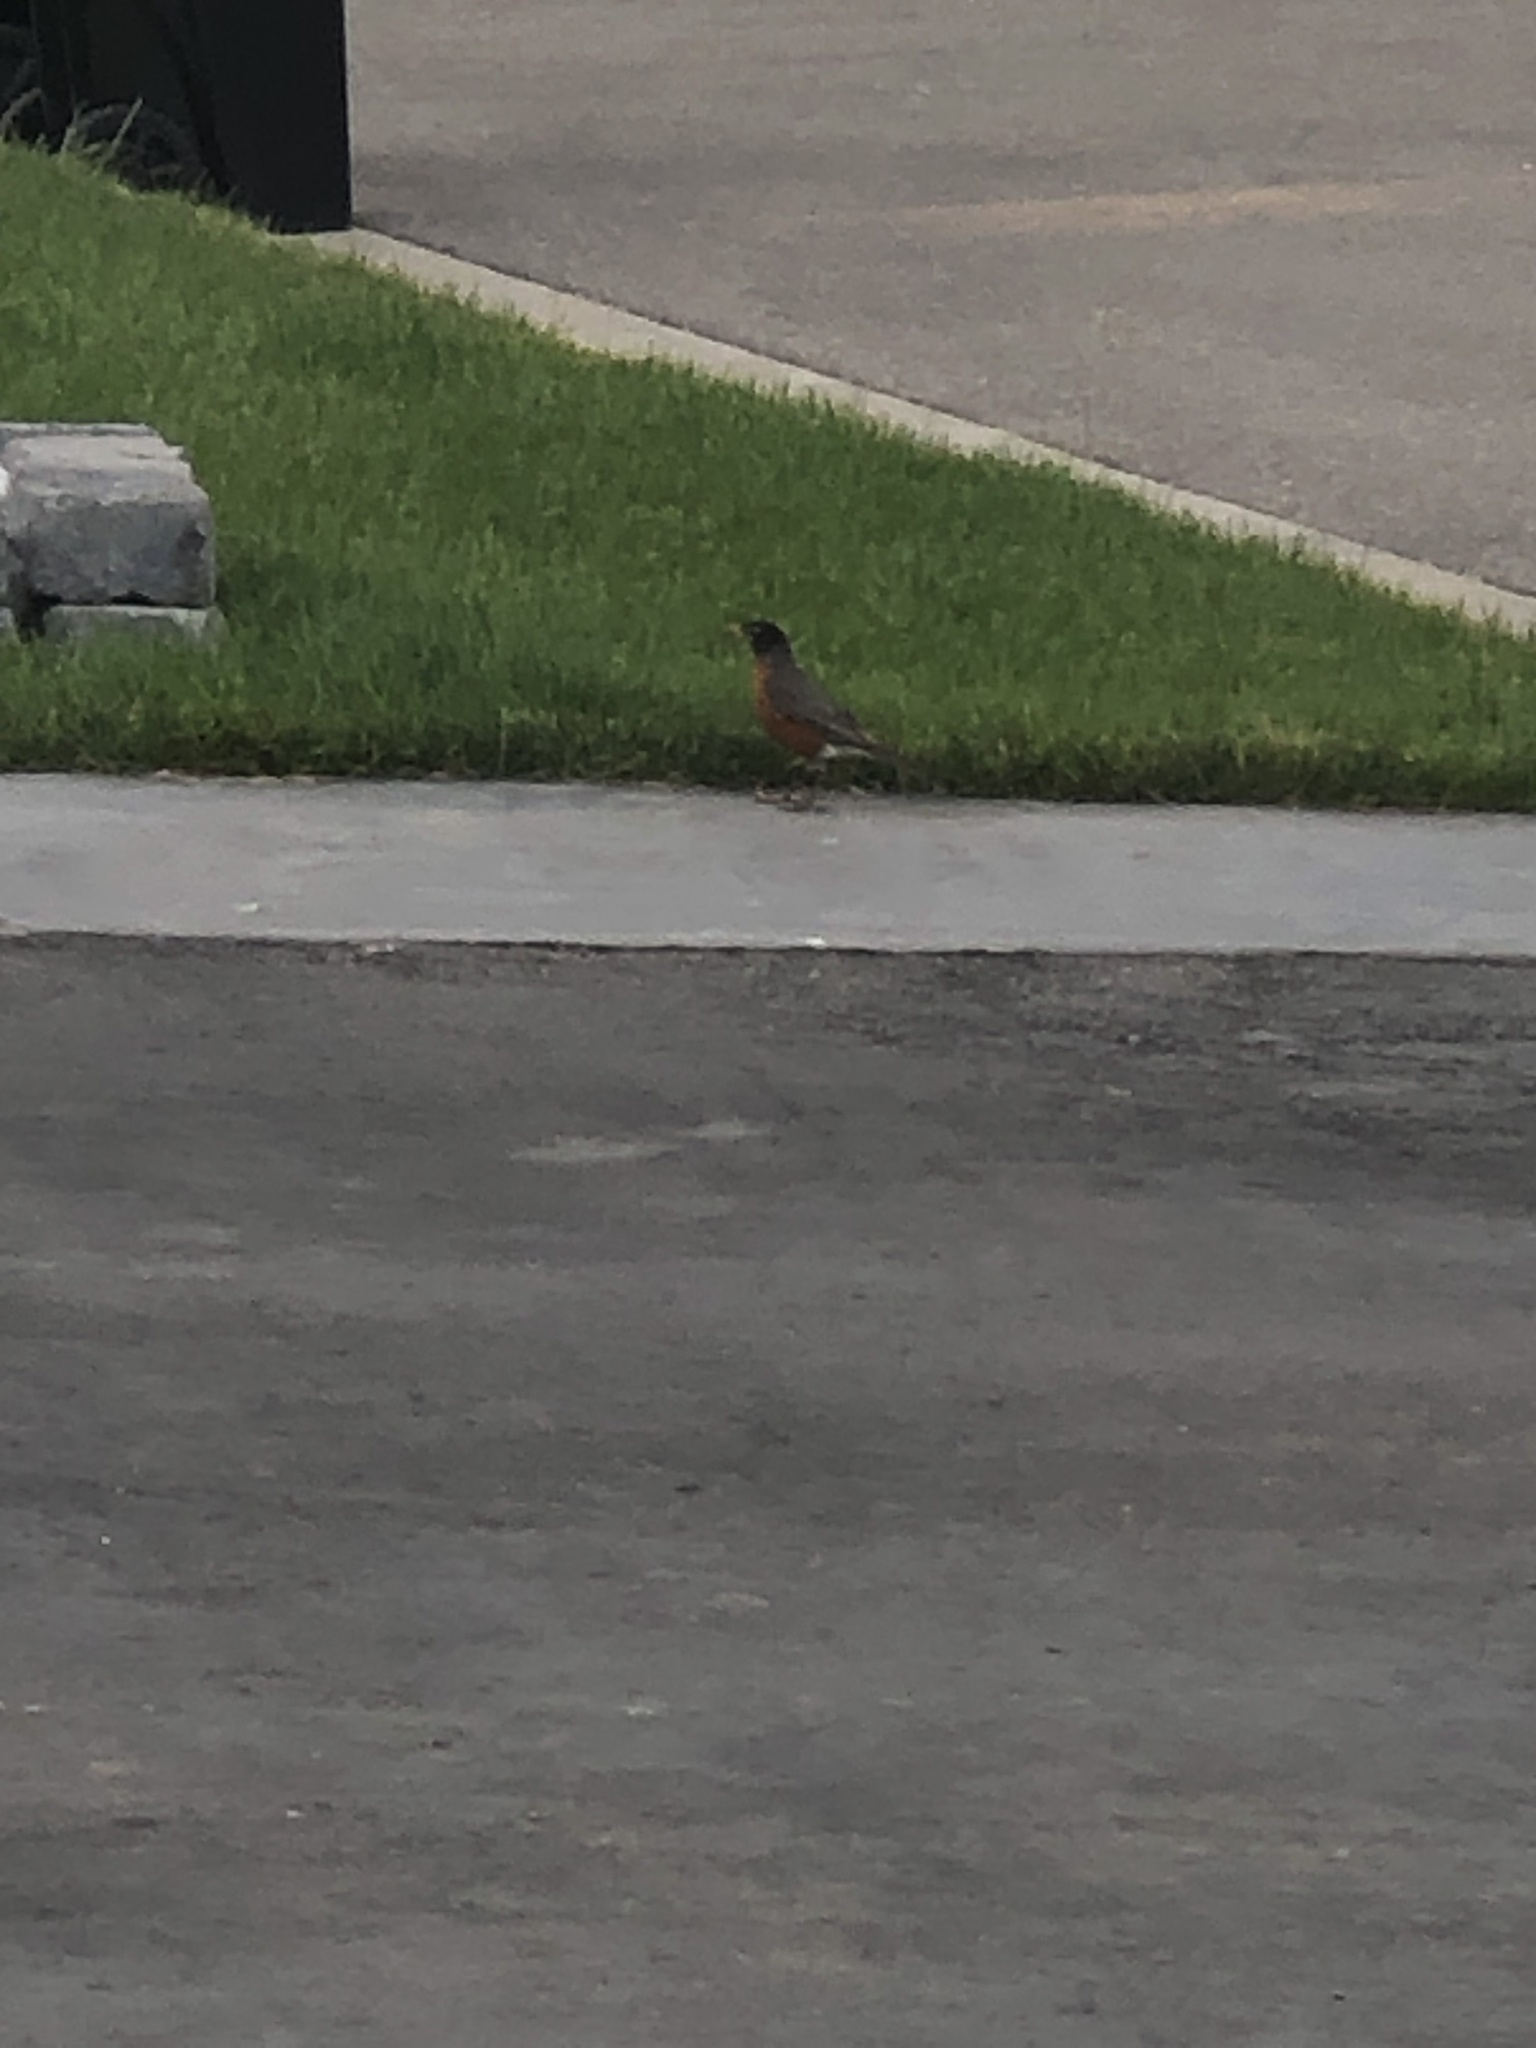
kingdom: Animalia
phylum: Chordata
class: Aves
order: Passeriformes
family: Turdidae
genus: Turdus
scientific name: Turdus migratorius
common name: American robin
